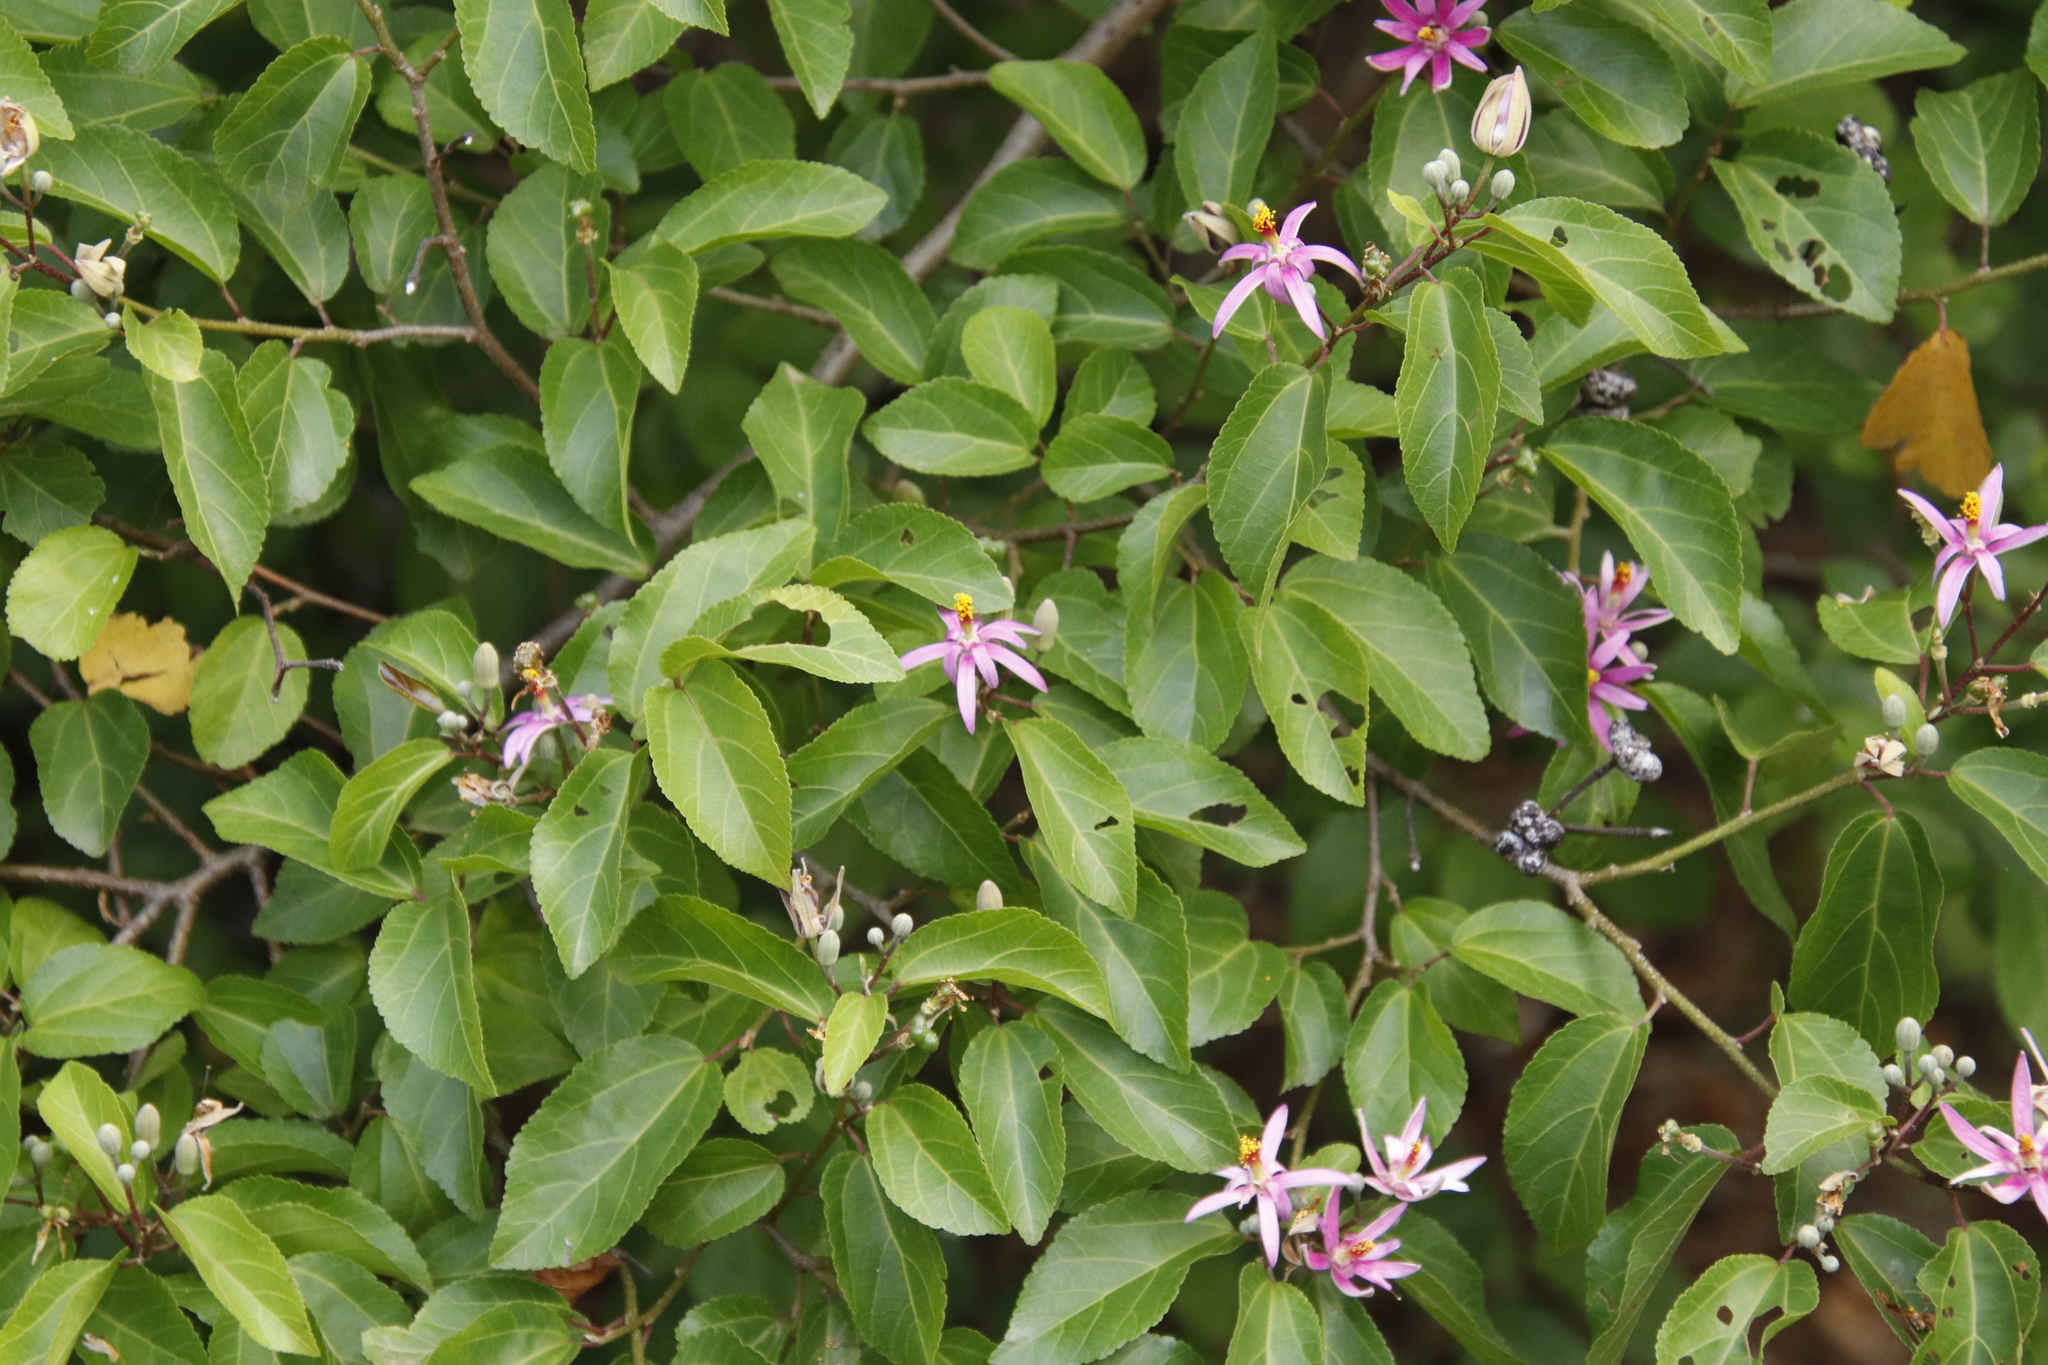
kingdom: Plantae
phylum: Tracheophyta
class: Magnoliopsida
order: Malvales
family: Malvaceae
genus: Grewia
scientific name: Grewia occidentalis
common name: Crossberry
